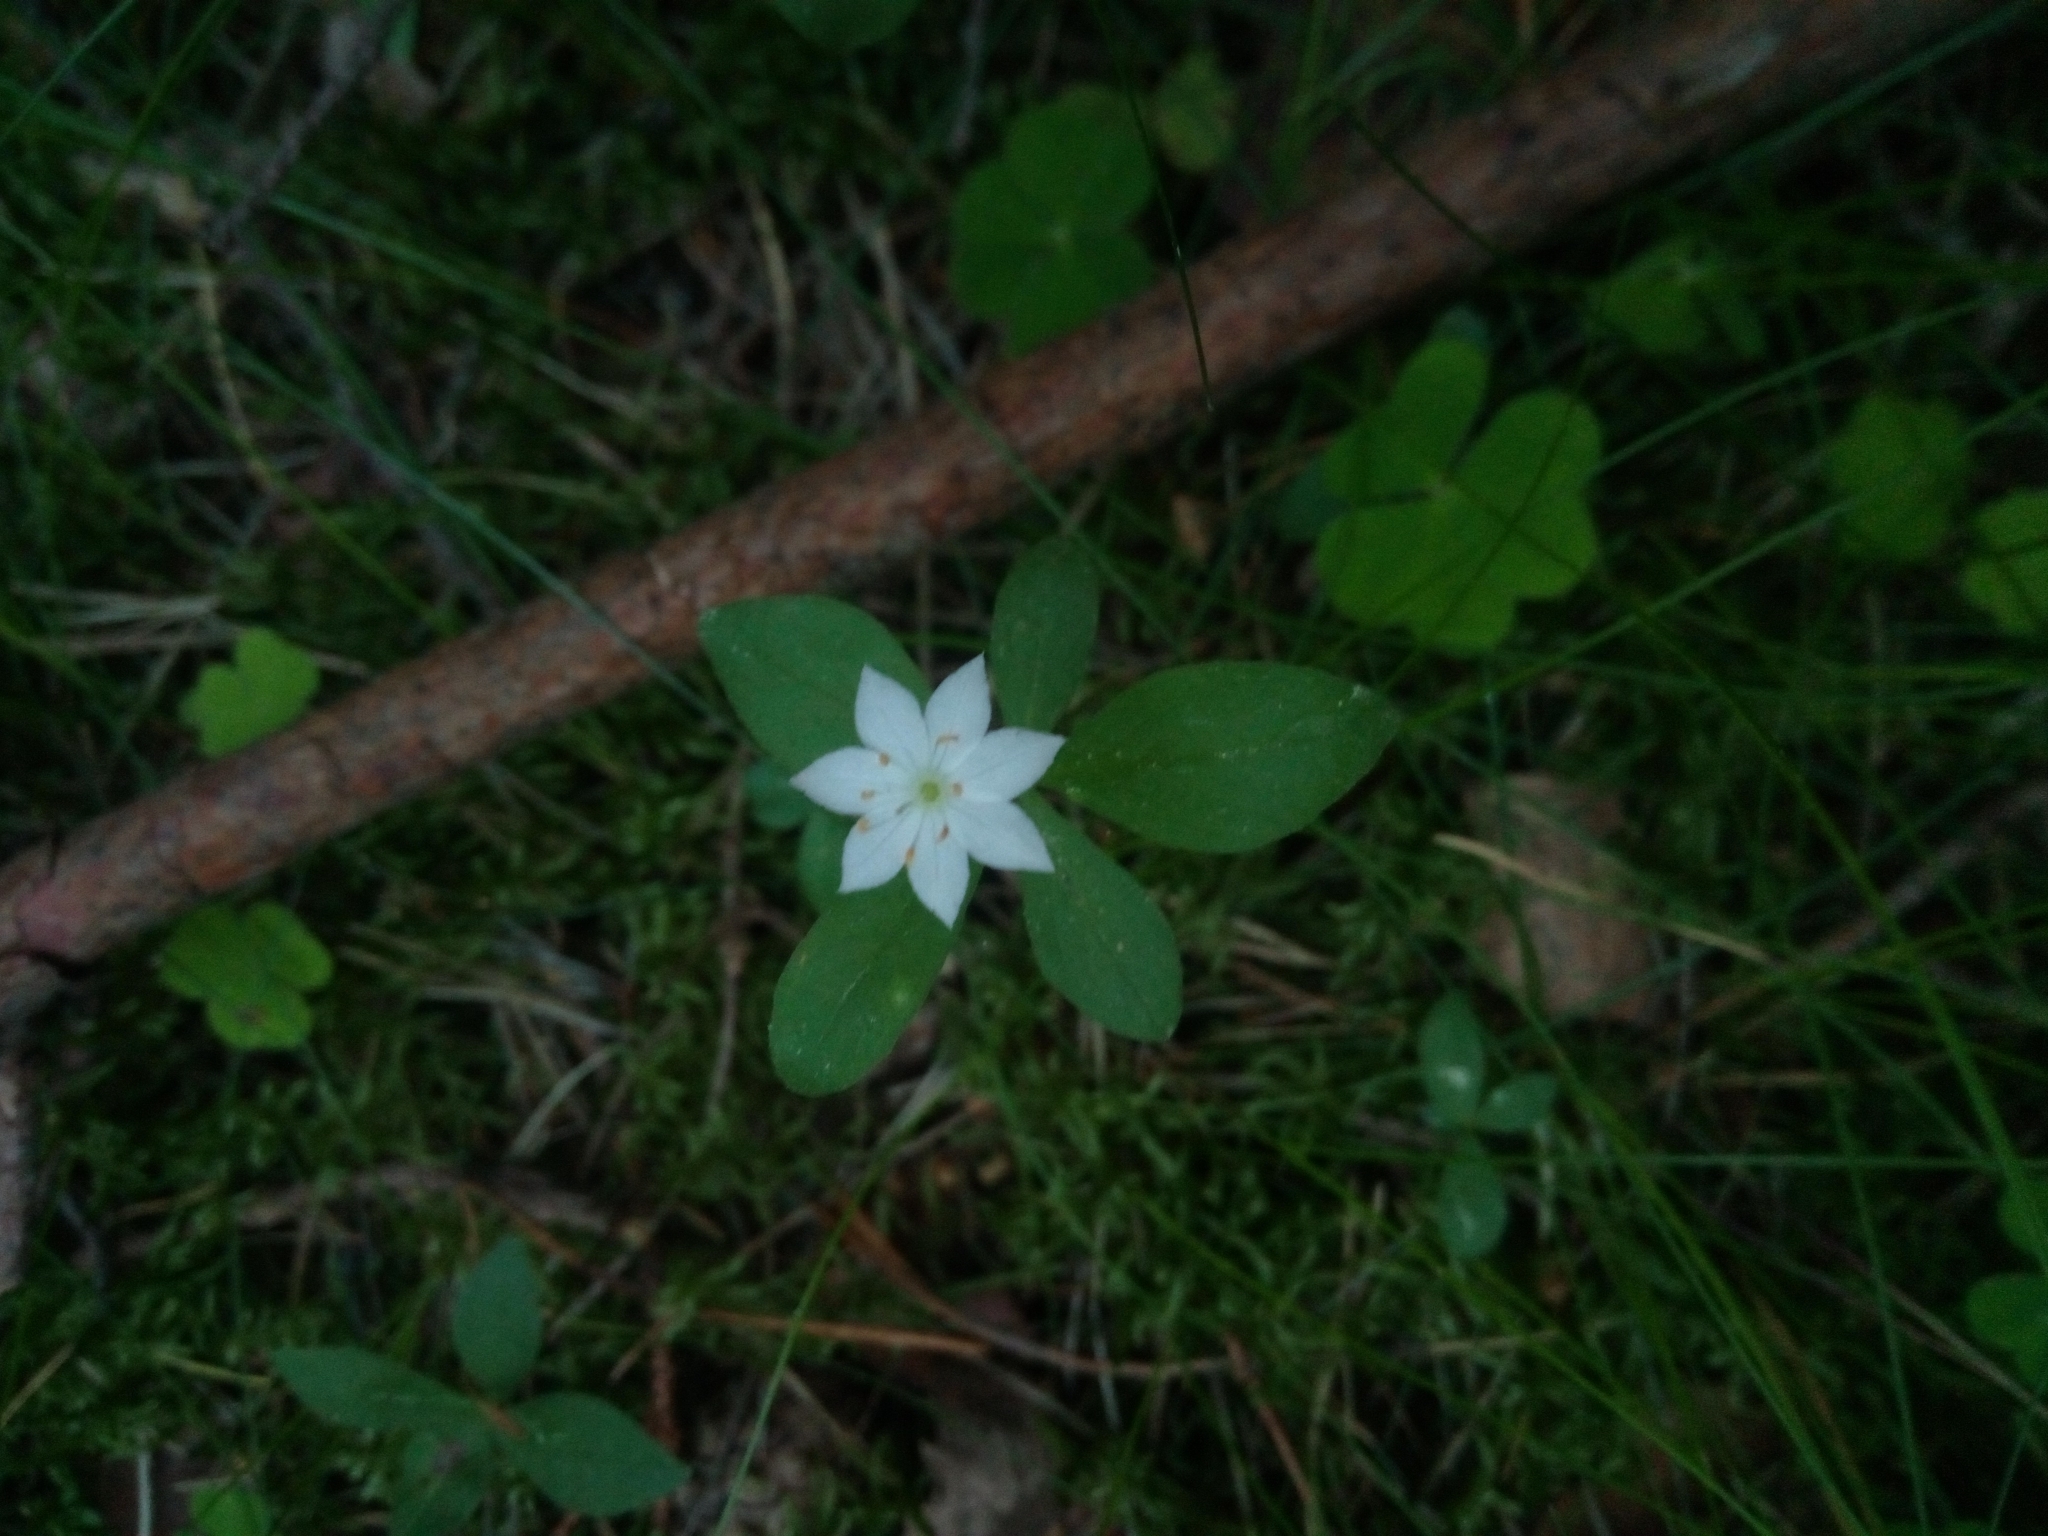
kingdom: Plantae
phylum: Tracheophyta
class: Magnoliopsida
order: Ericales
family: Primulaceae
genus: Lysimachia
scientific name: Lysimachia europaea
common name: Arctic starflower
